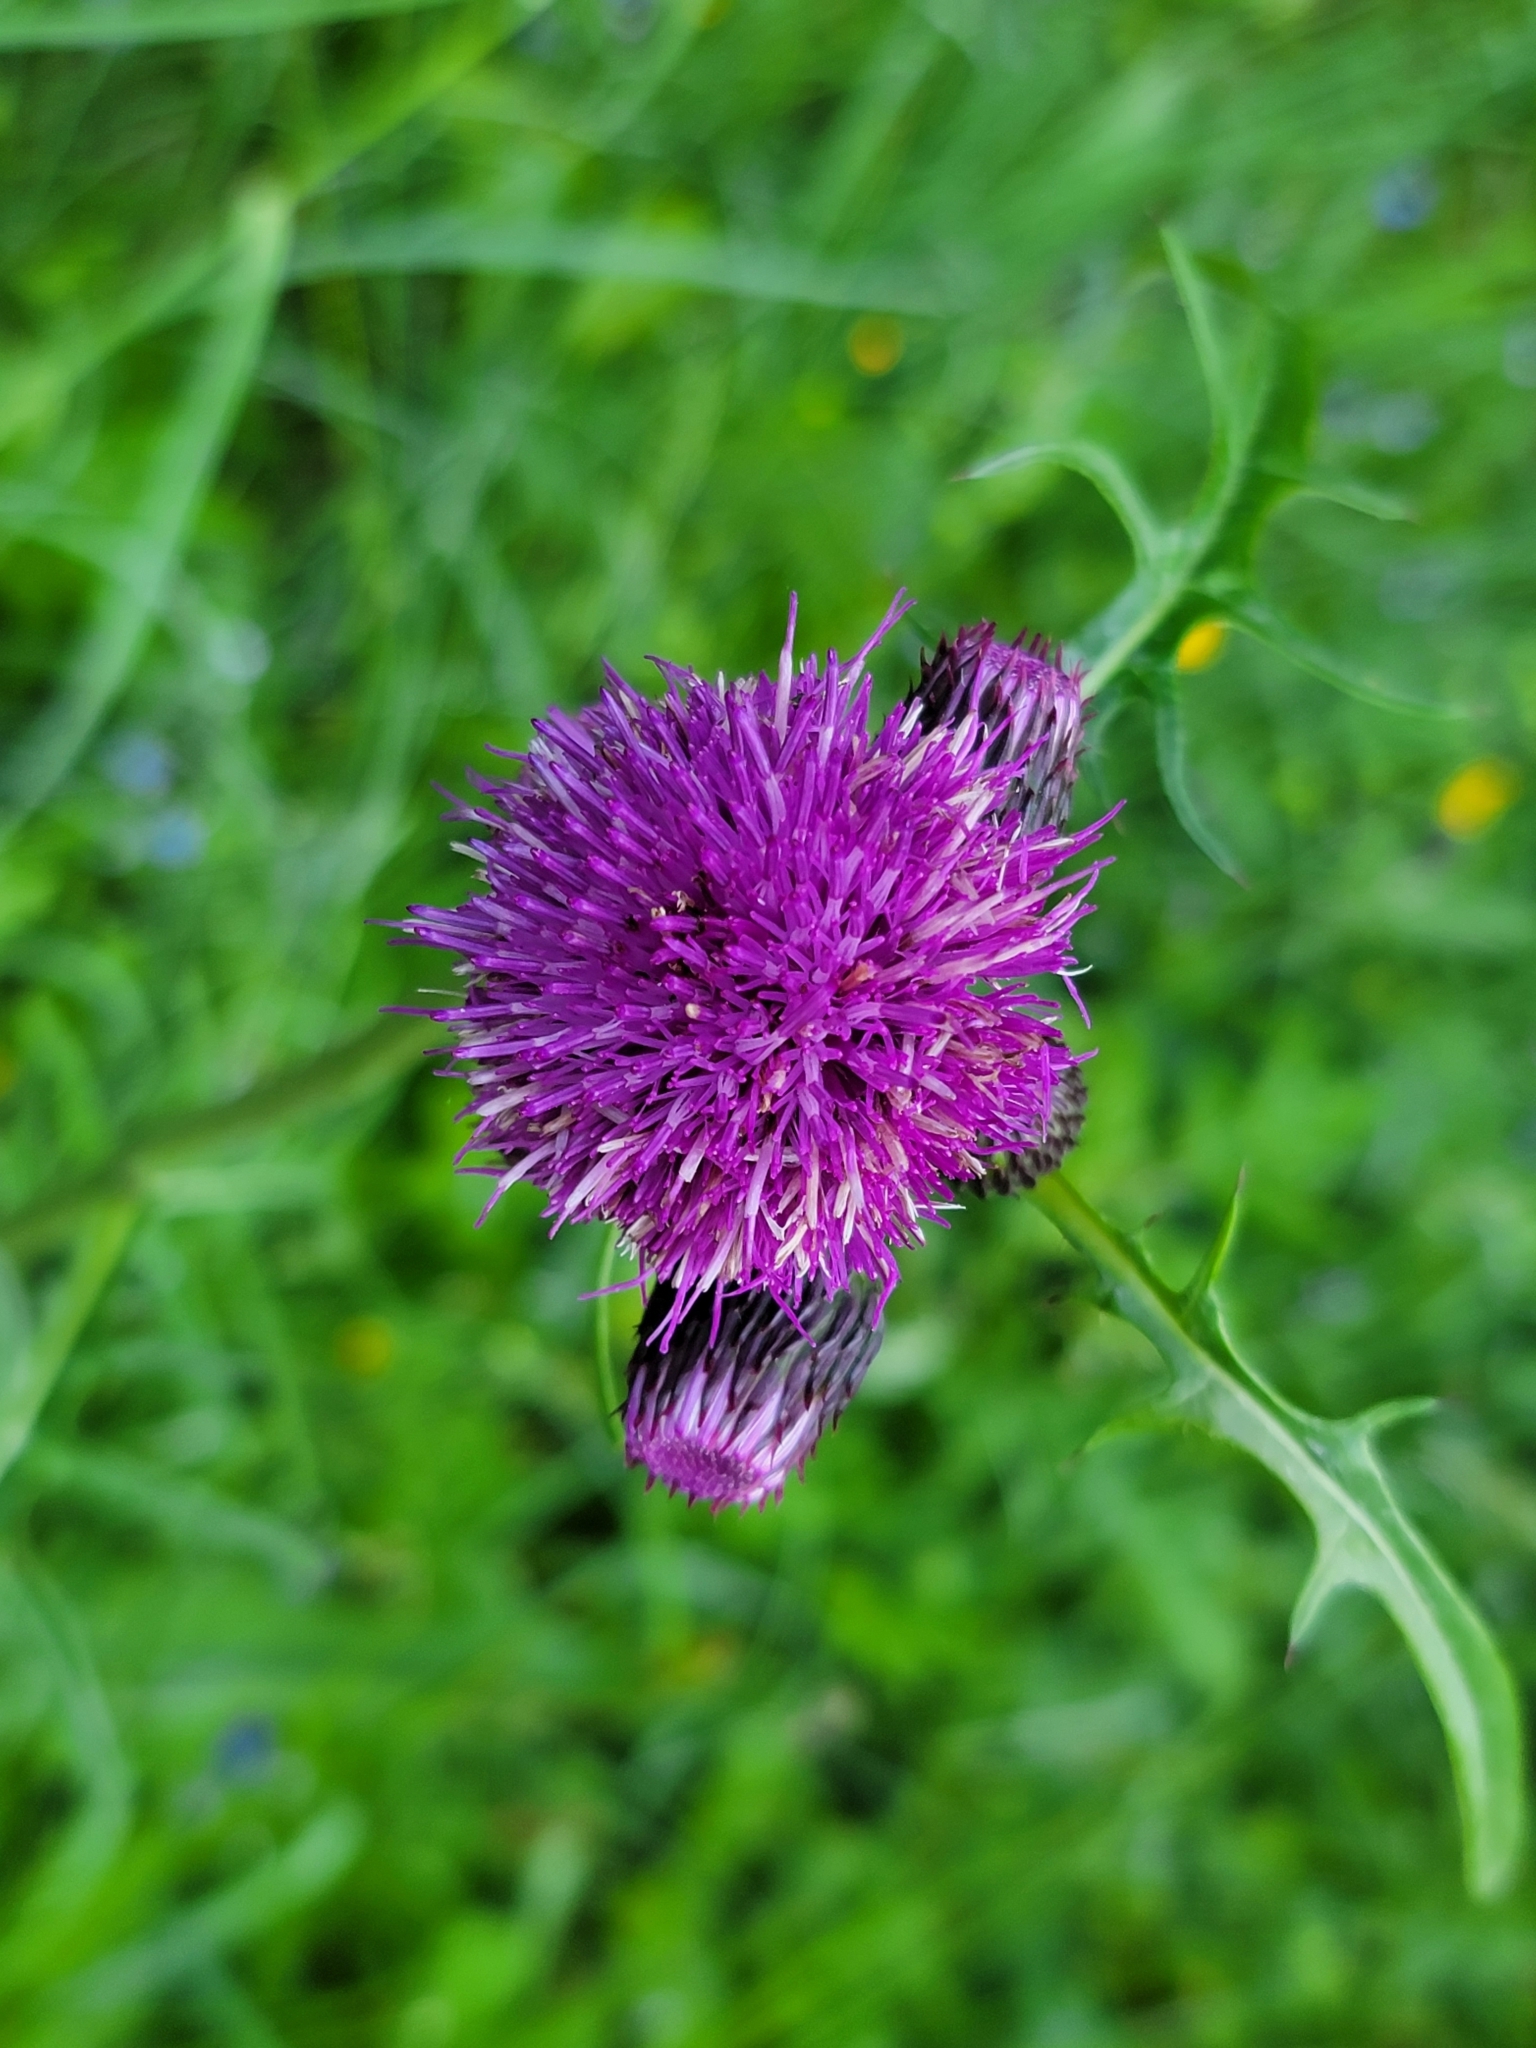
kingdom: Plantae
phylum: Tracheophyta
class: Magnoliopsida
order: Asterales
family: Asteraceae
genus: Cirsium
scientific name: Cirsium rivulare
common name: Brook thistle
